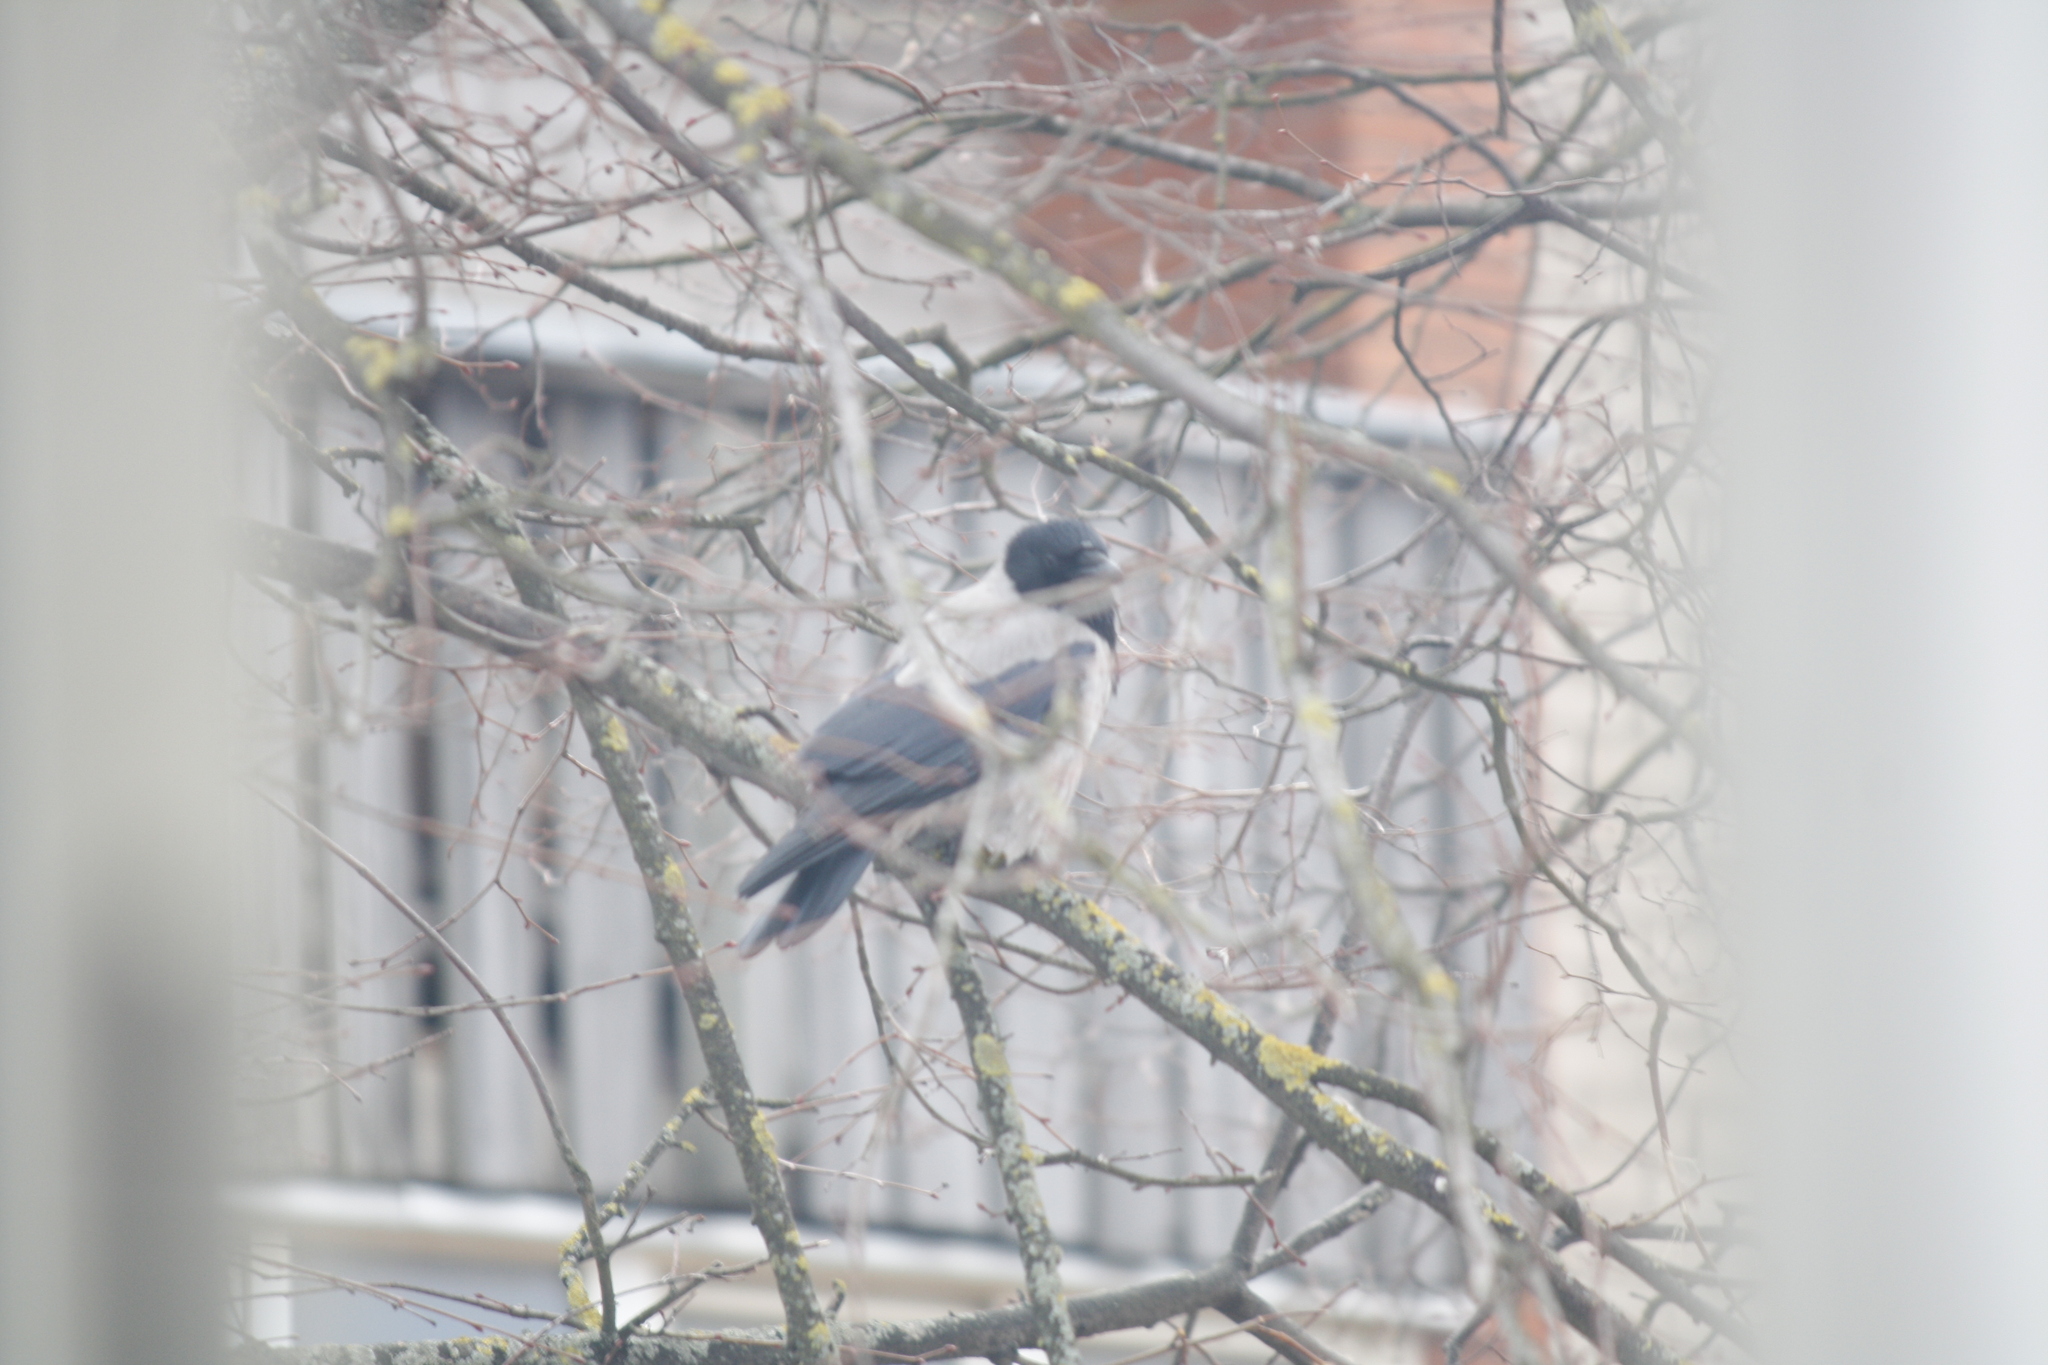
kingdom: Animalia
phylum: Chordata
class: Aves
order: Passeriformes
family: Corvidae
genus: Corvus
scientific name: Corvus cornix
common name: Hooded crow
